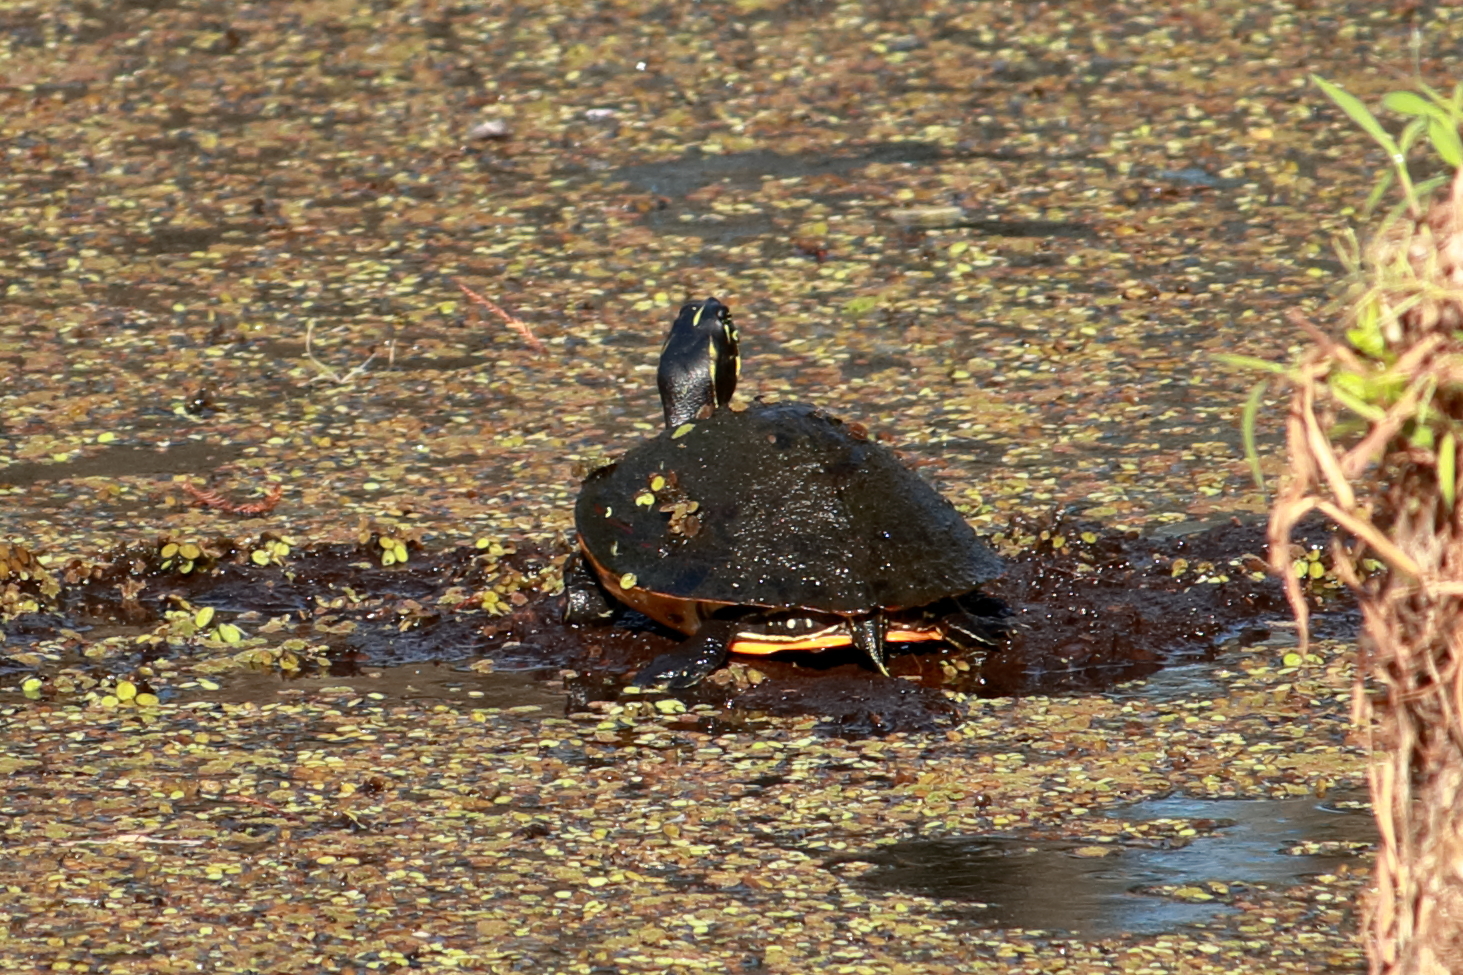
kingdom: Animalia
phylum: Chordata
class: Testudines
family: Emydidae
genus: Pseudemys
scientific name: Pseudemys nelsoni
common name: Florida red-bellied turtle
